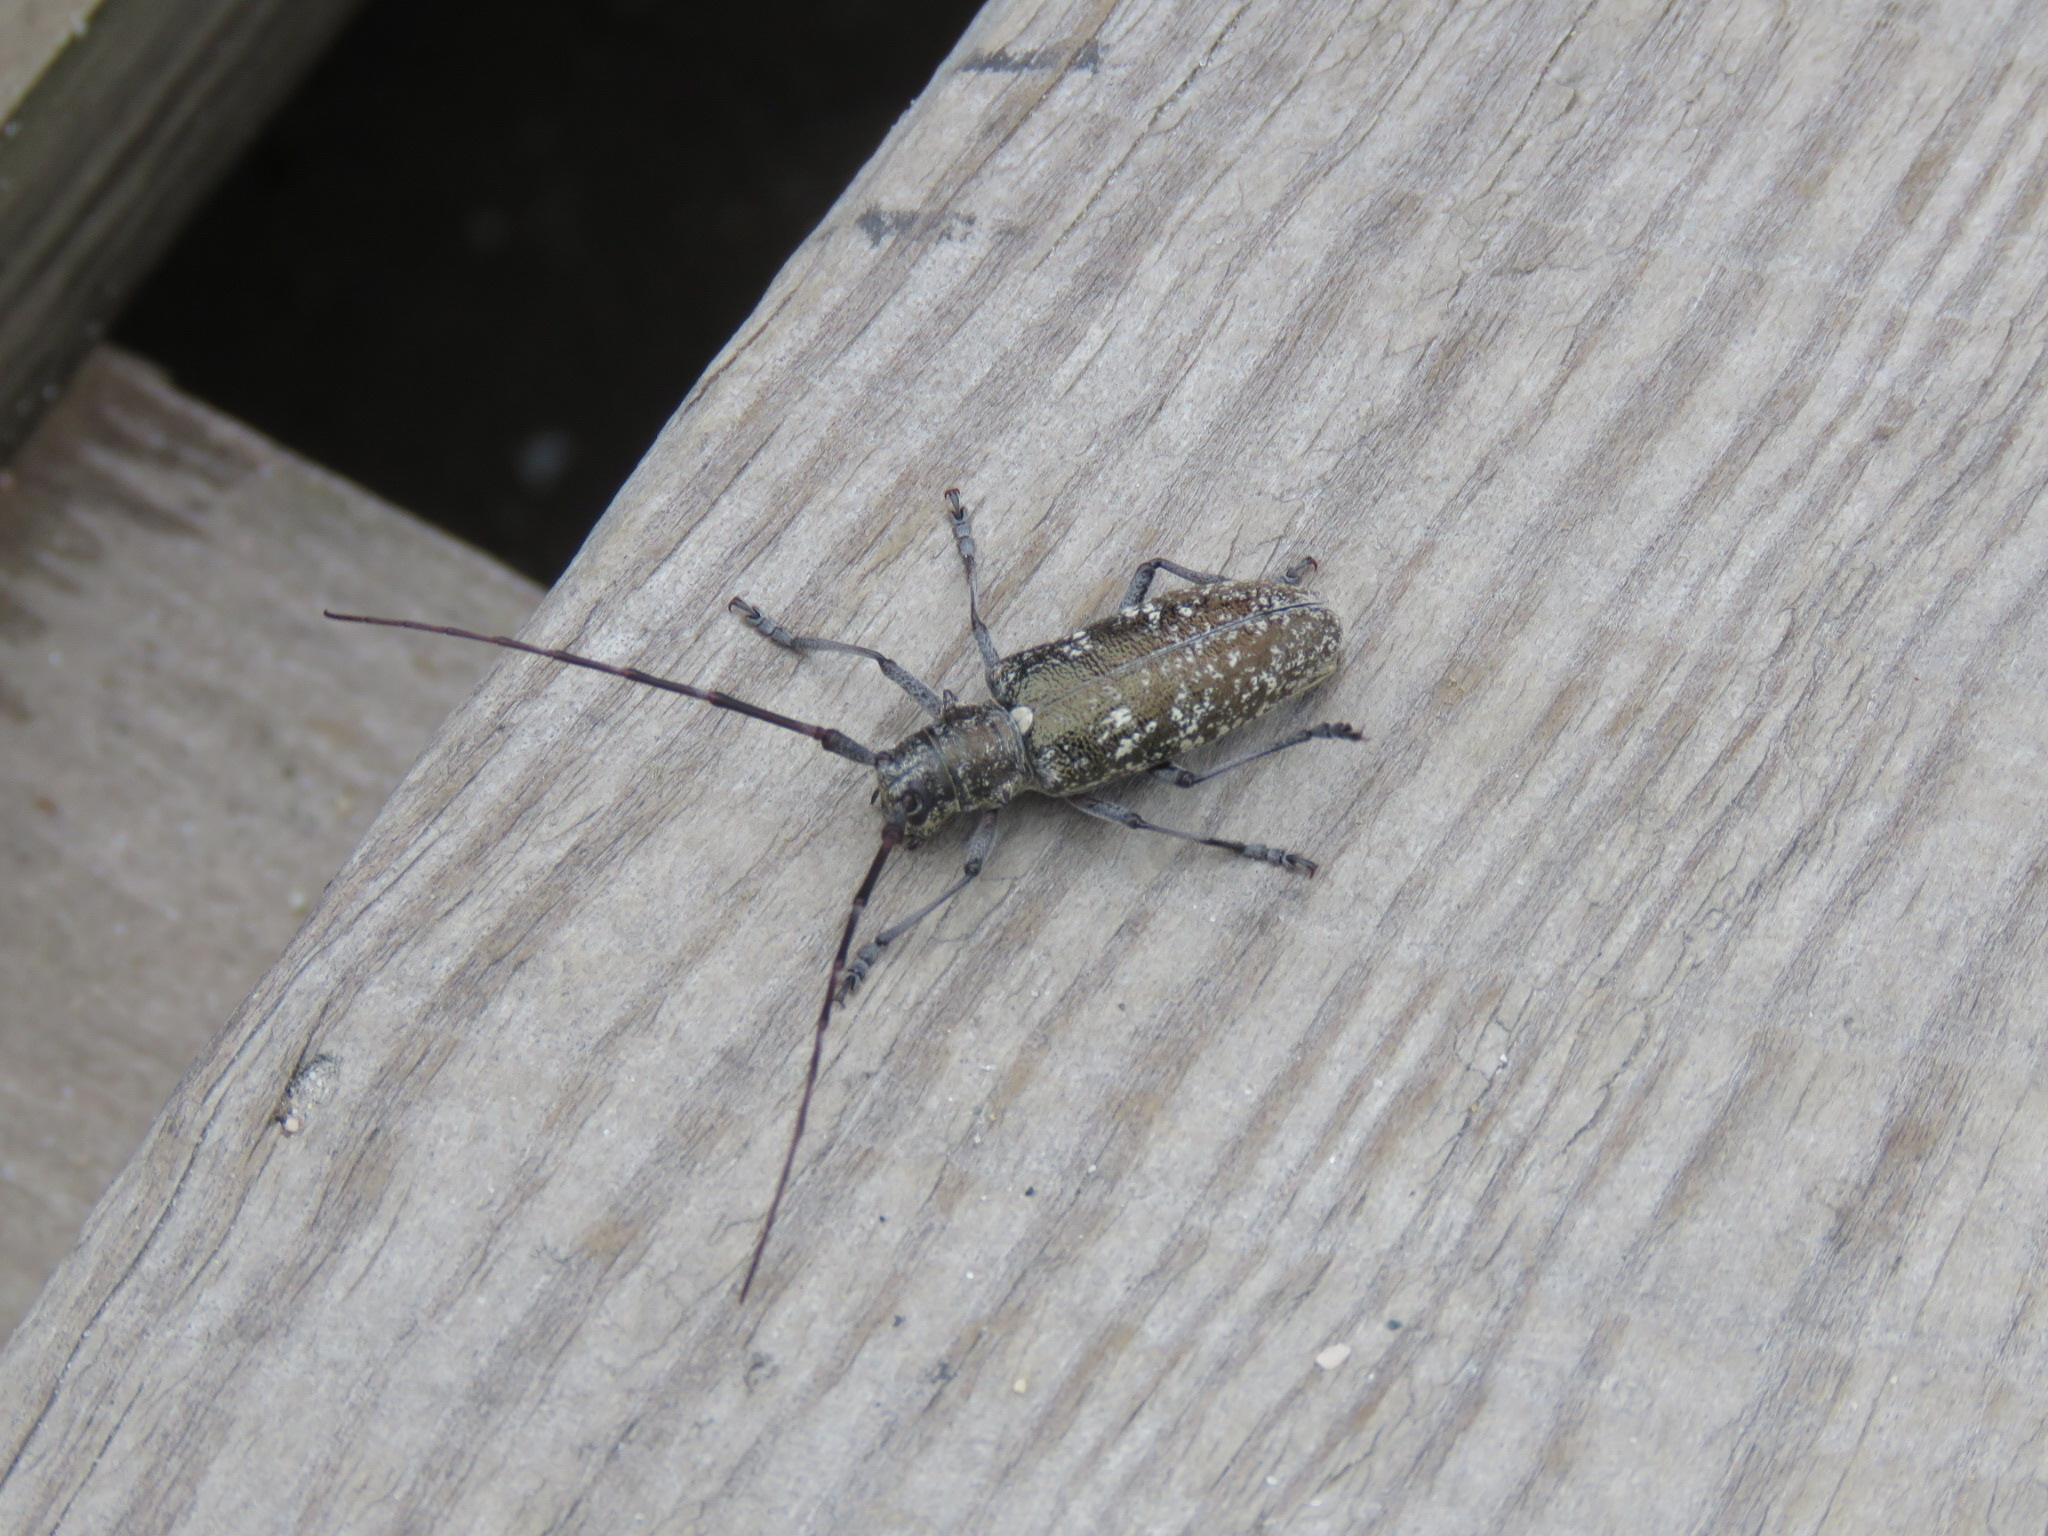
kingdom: Animalia
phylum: Arthropoda
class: Insecta
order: Coleoptera
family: Cerambycidae
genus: Monochamus
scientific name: Monochamus scutellatus
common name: White-spotted sawyer beetle
